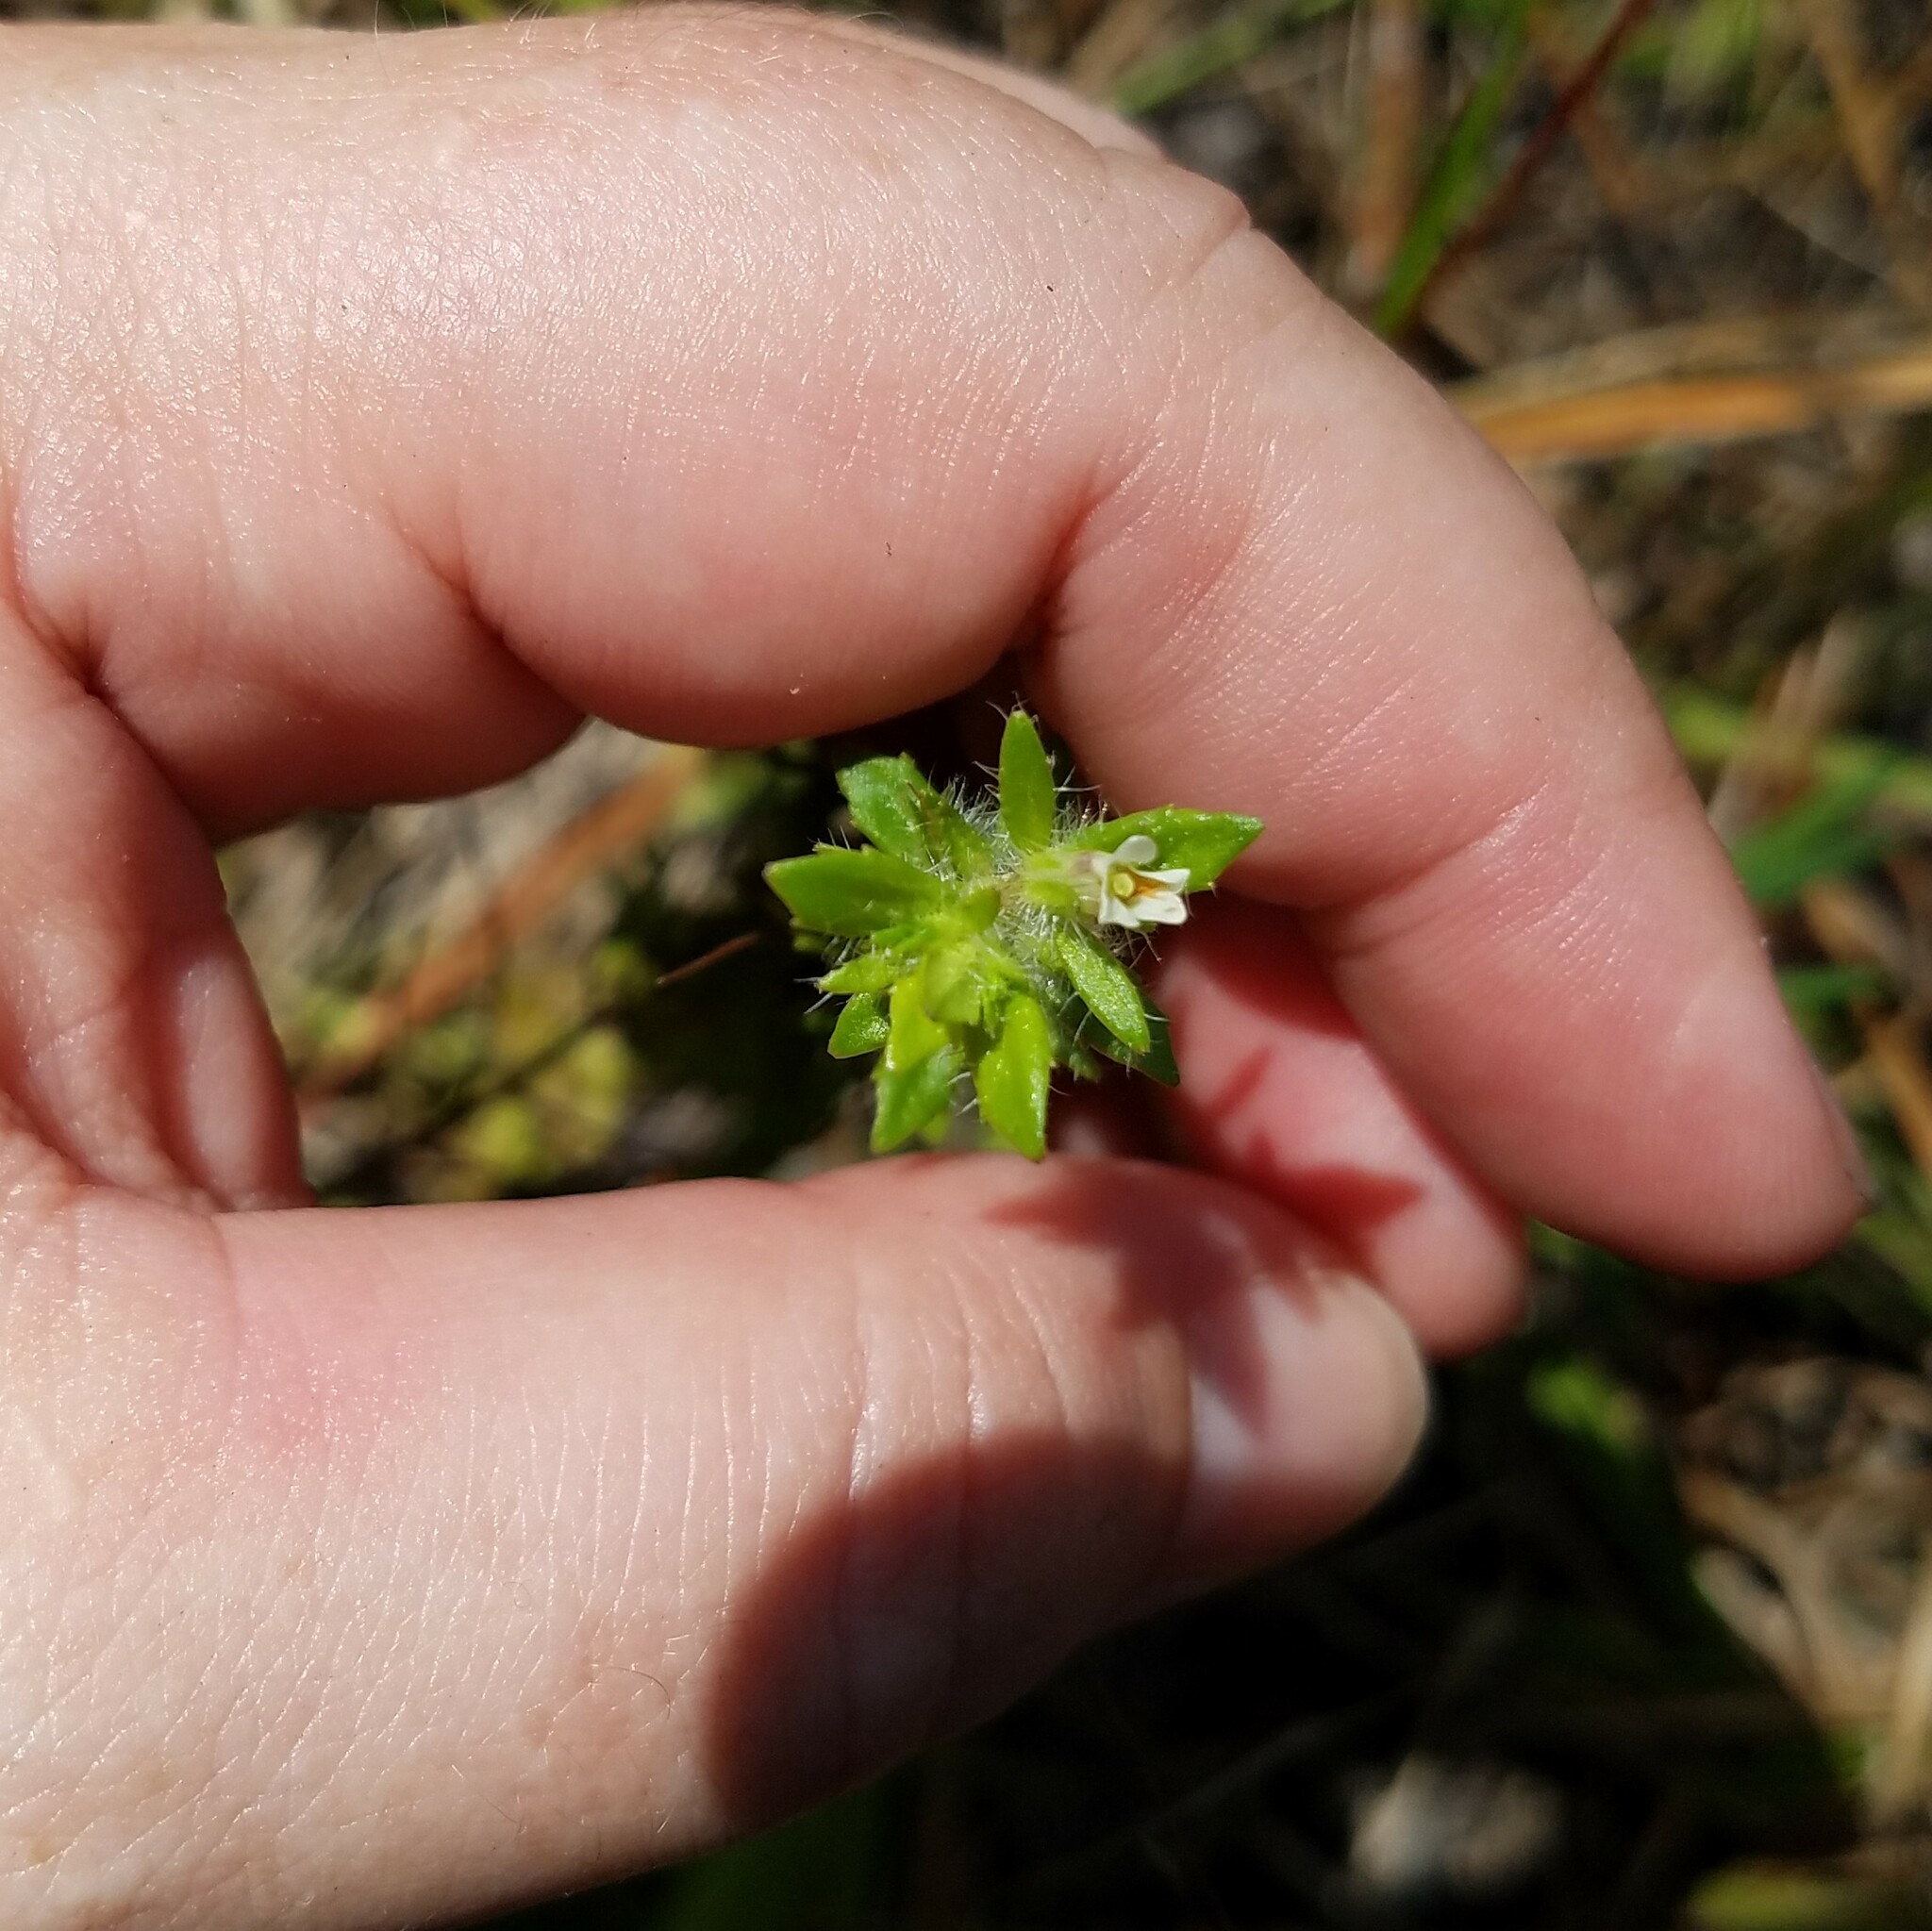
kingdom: Plantae
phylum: Tracheophyta
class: Magnoliopsida
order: Lamiales
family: Plantaginaceae
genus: Gratiola
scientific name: Gratiola pilosa
